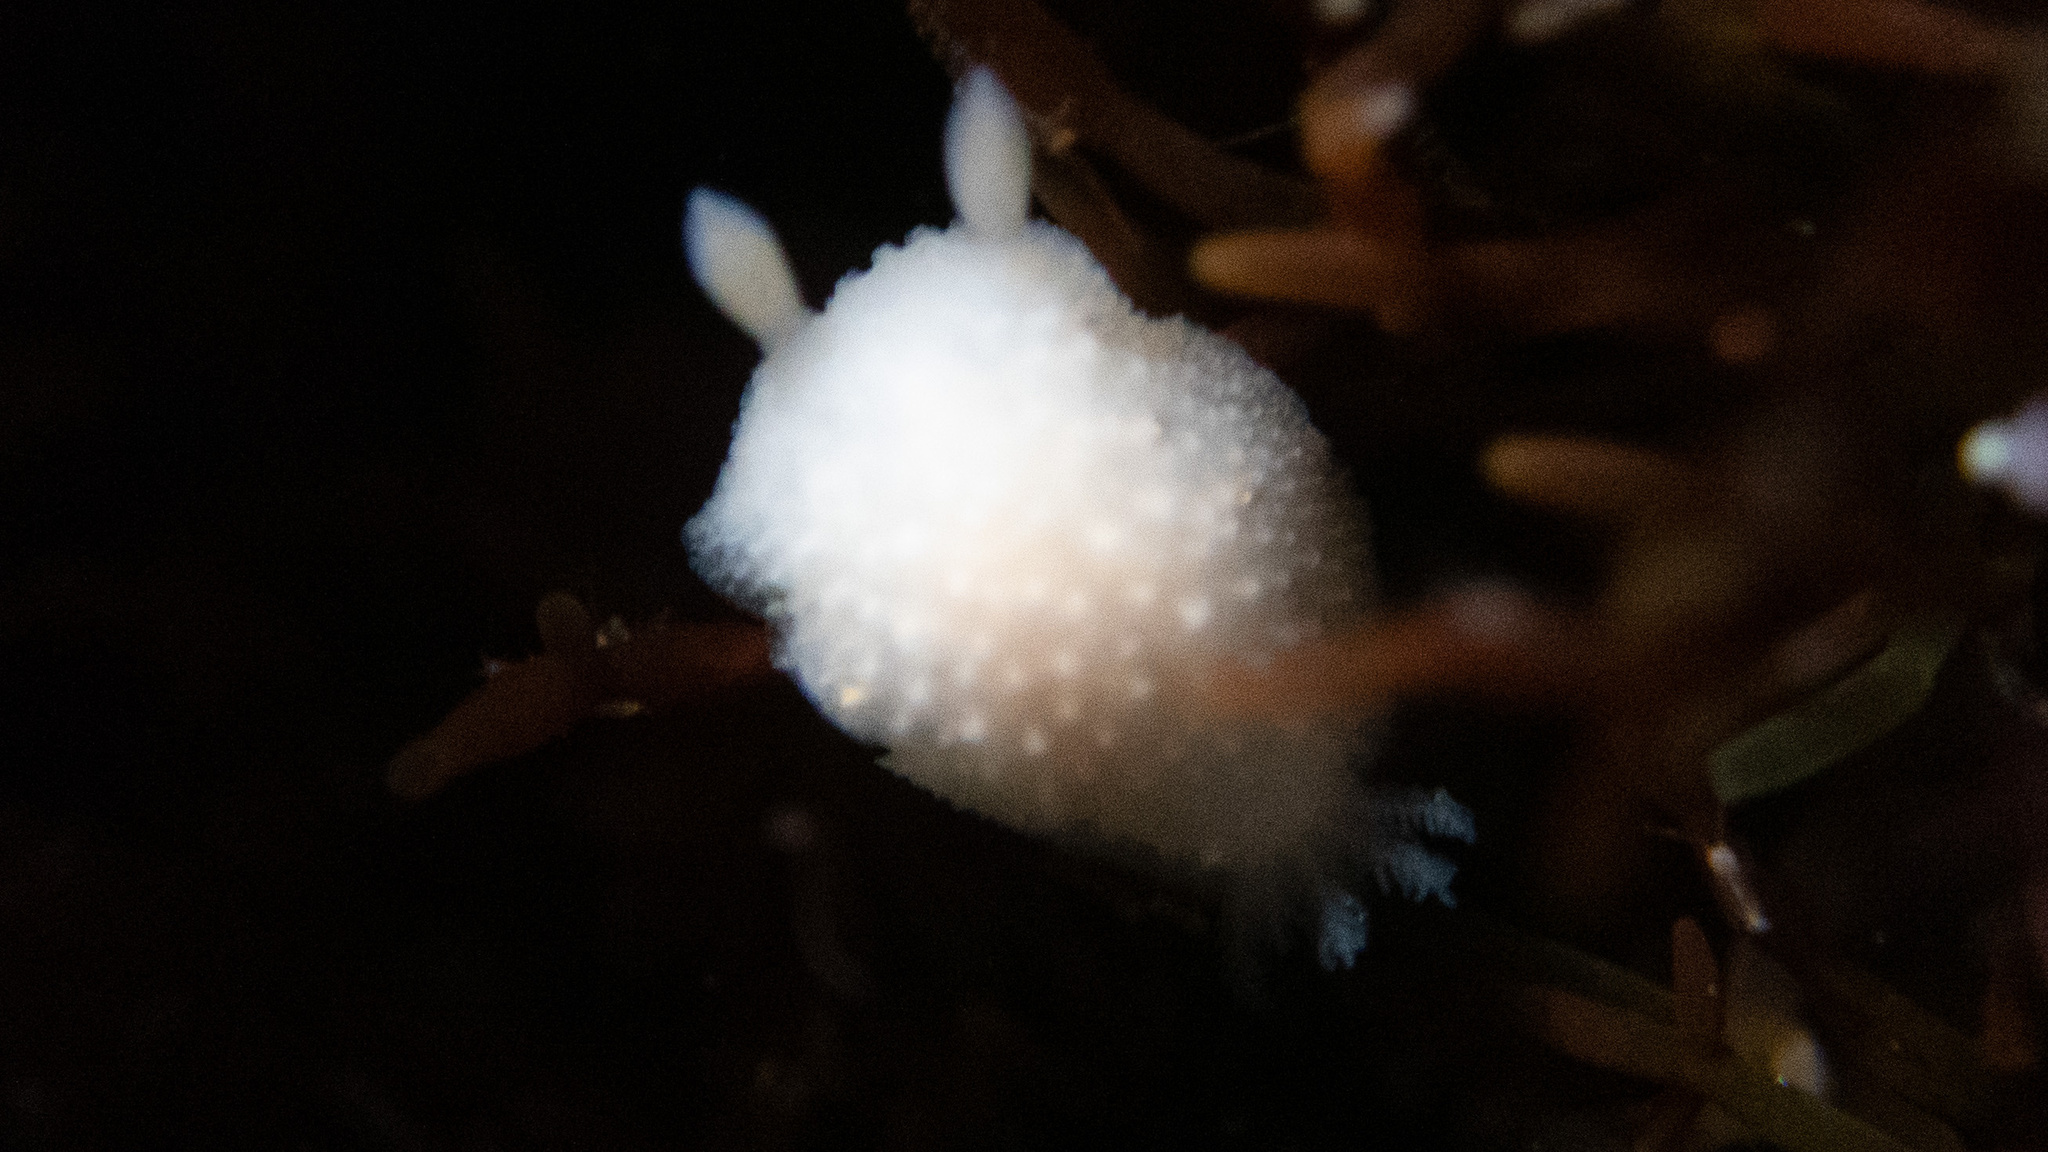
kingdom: Animalia
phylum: Mollusca
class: Gastropoda
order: Nudibranchia
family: Cadlinidae
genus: Cadlina
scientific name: Cadlina sparsa
